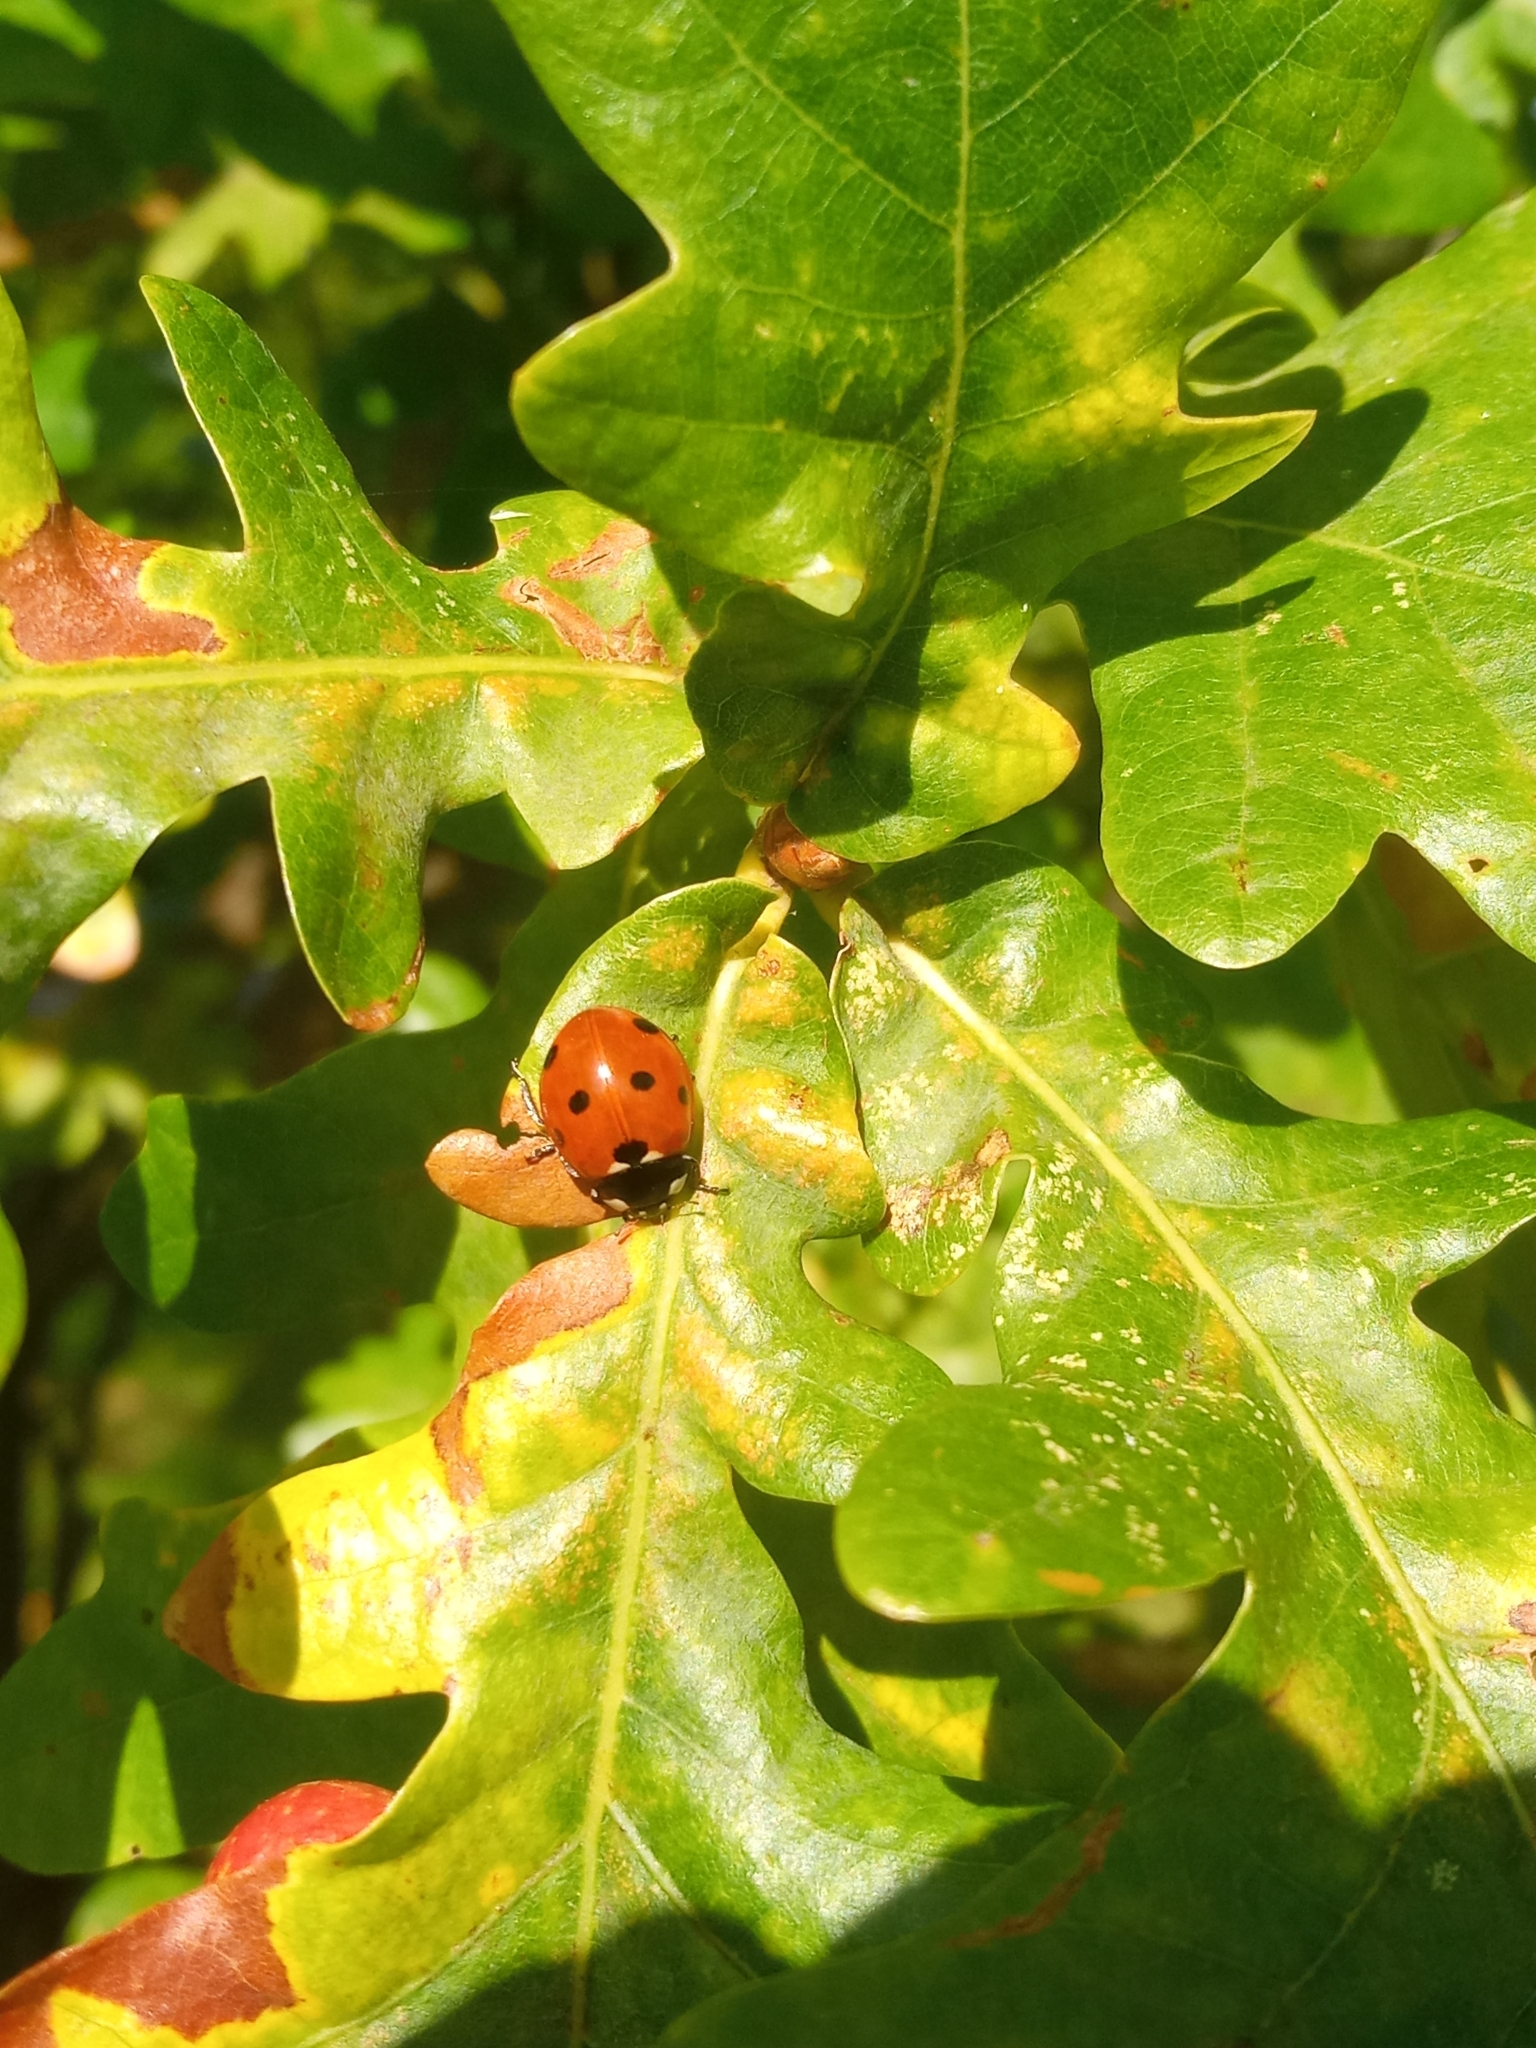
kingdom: Animalia
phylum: Arthropoda
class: Insecta
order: Coleoptera
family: Coccinellidae
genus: Coccinella
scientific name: Coccinella septempunctata
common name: Sevenspotted lady beetle
